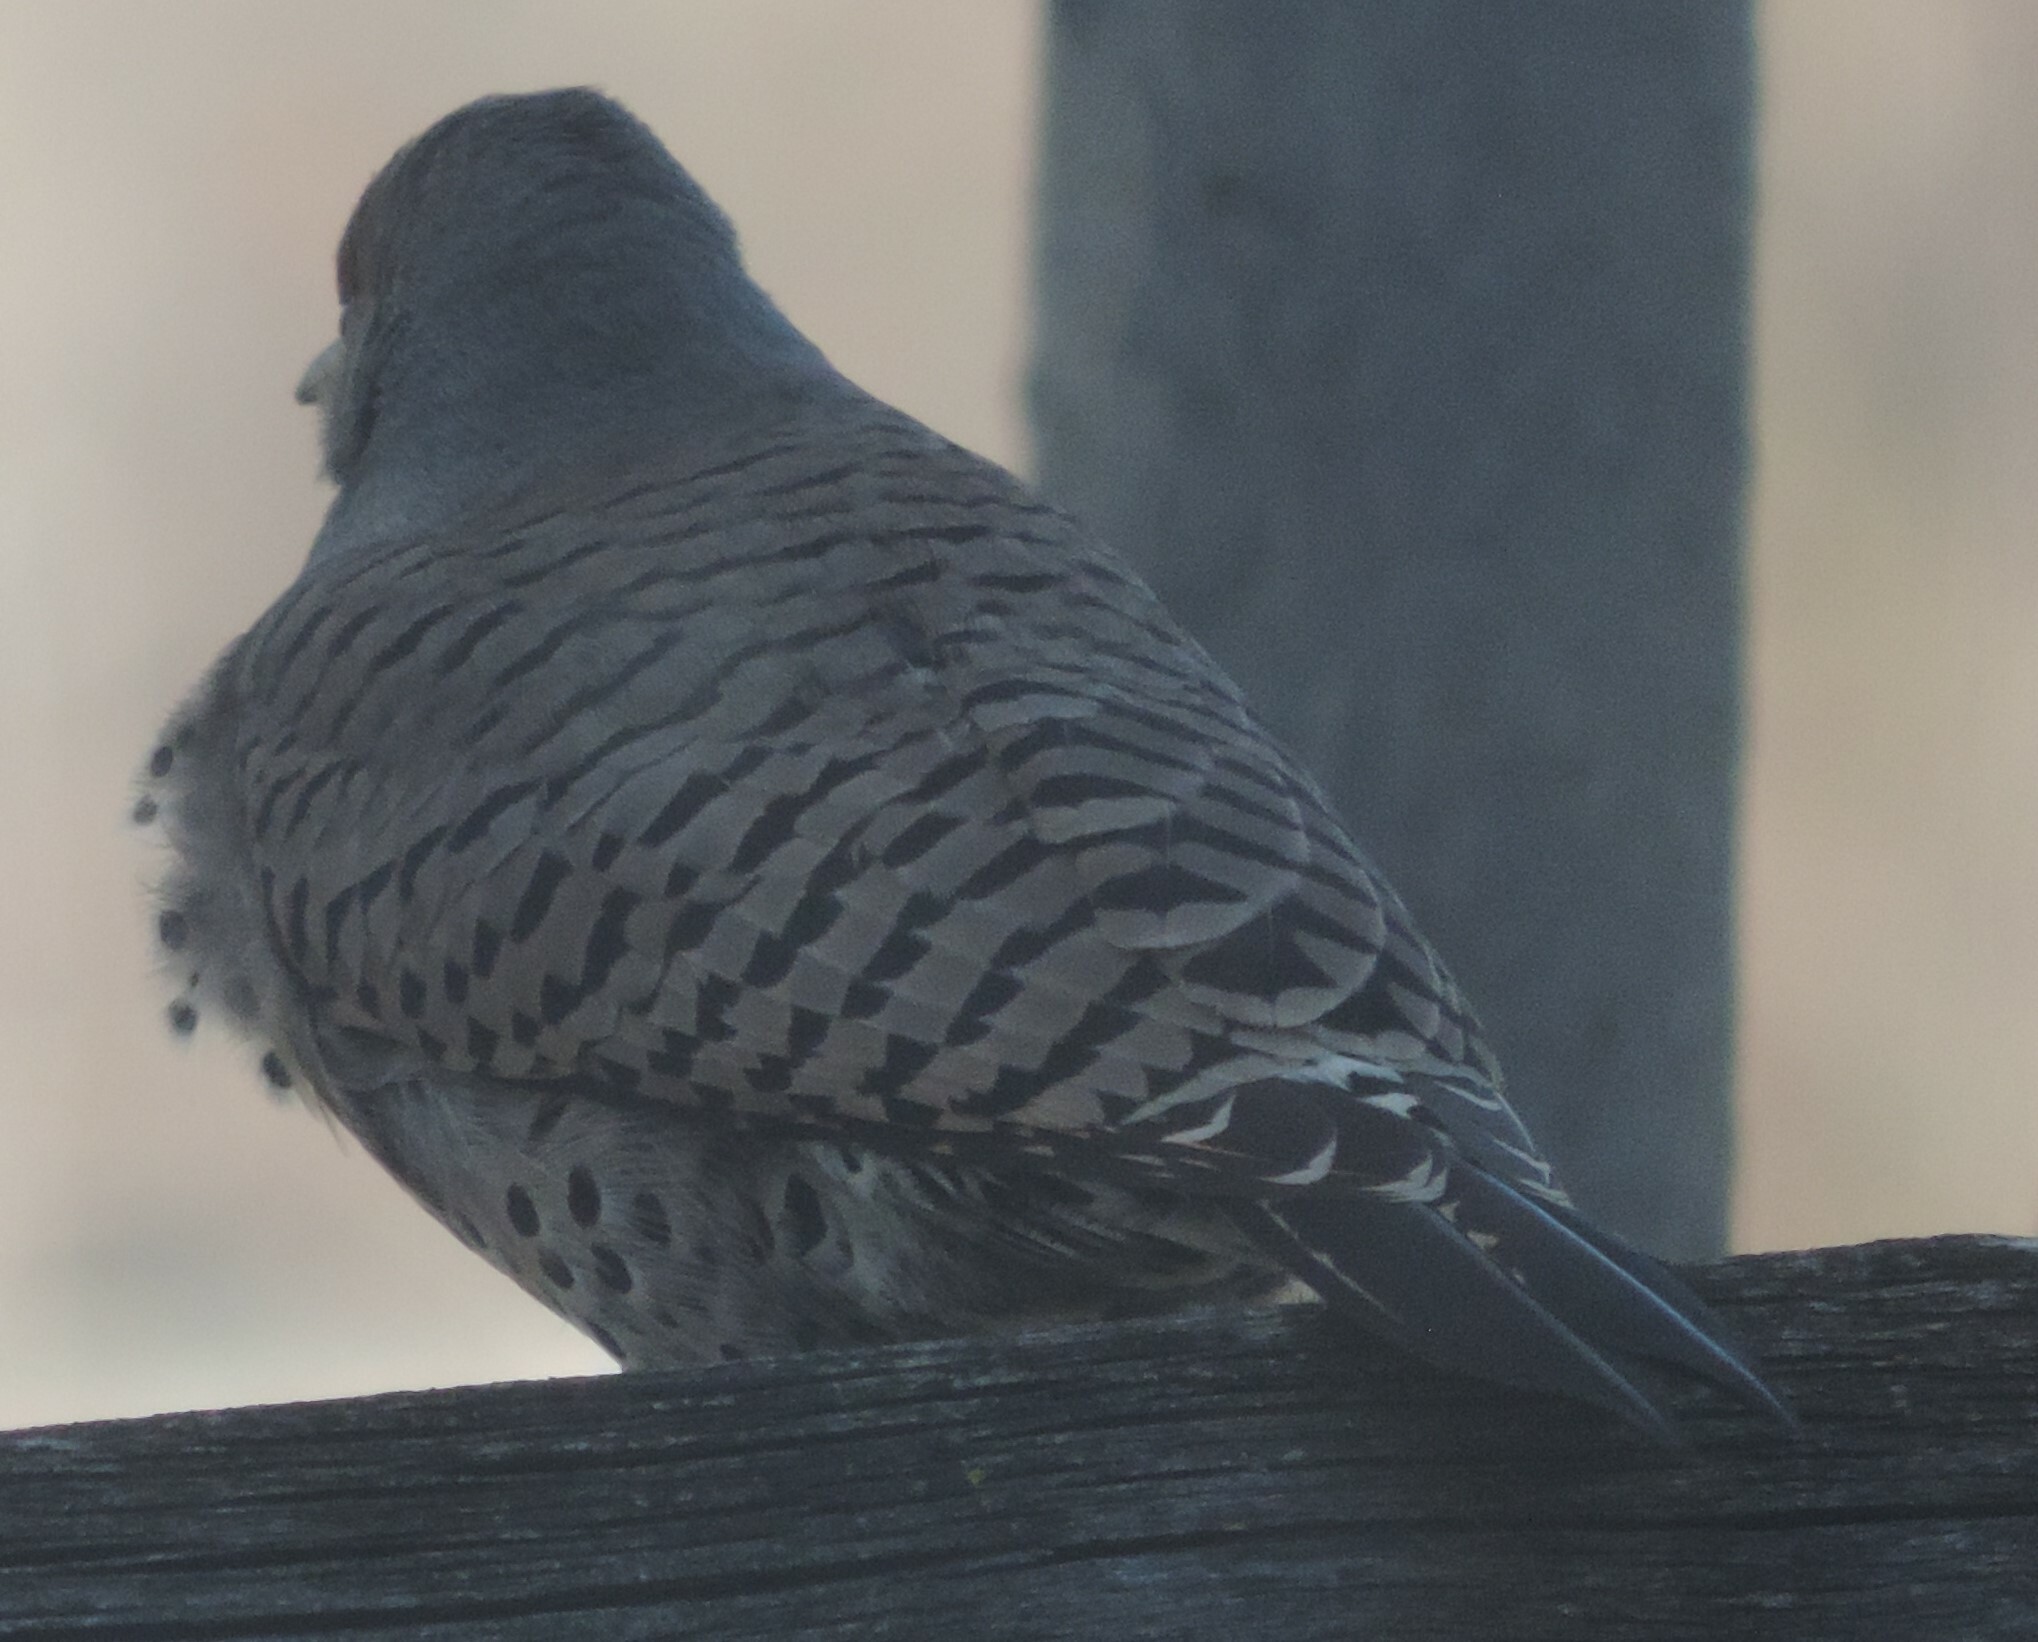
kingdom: Animalia
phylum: Chordata
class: Aves
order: Piciformes
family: Picidae
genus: Colaptes
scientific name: Colaptes auratus
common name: Northern flicker
